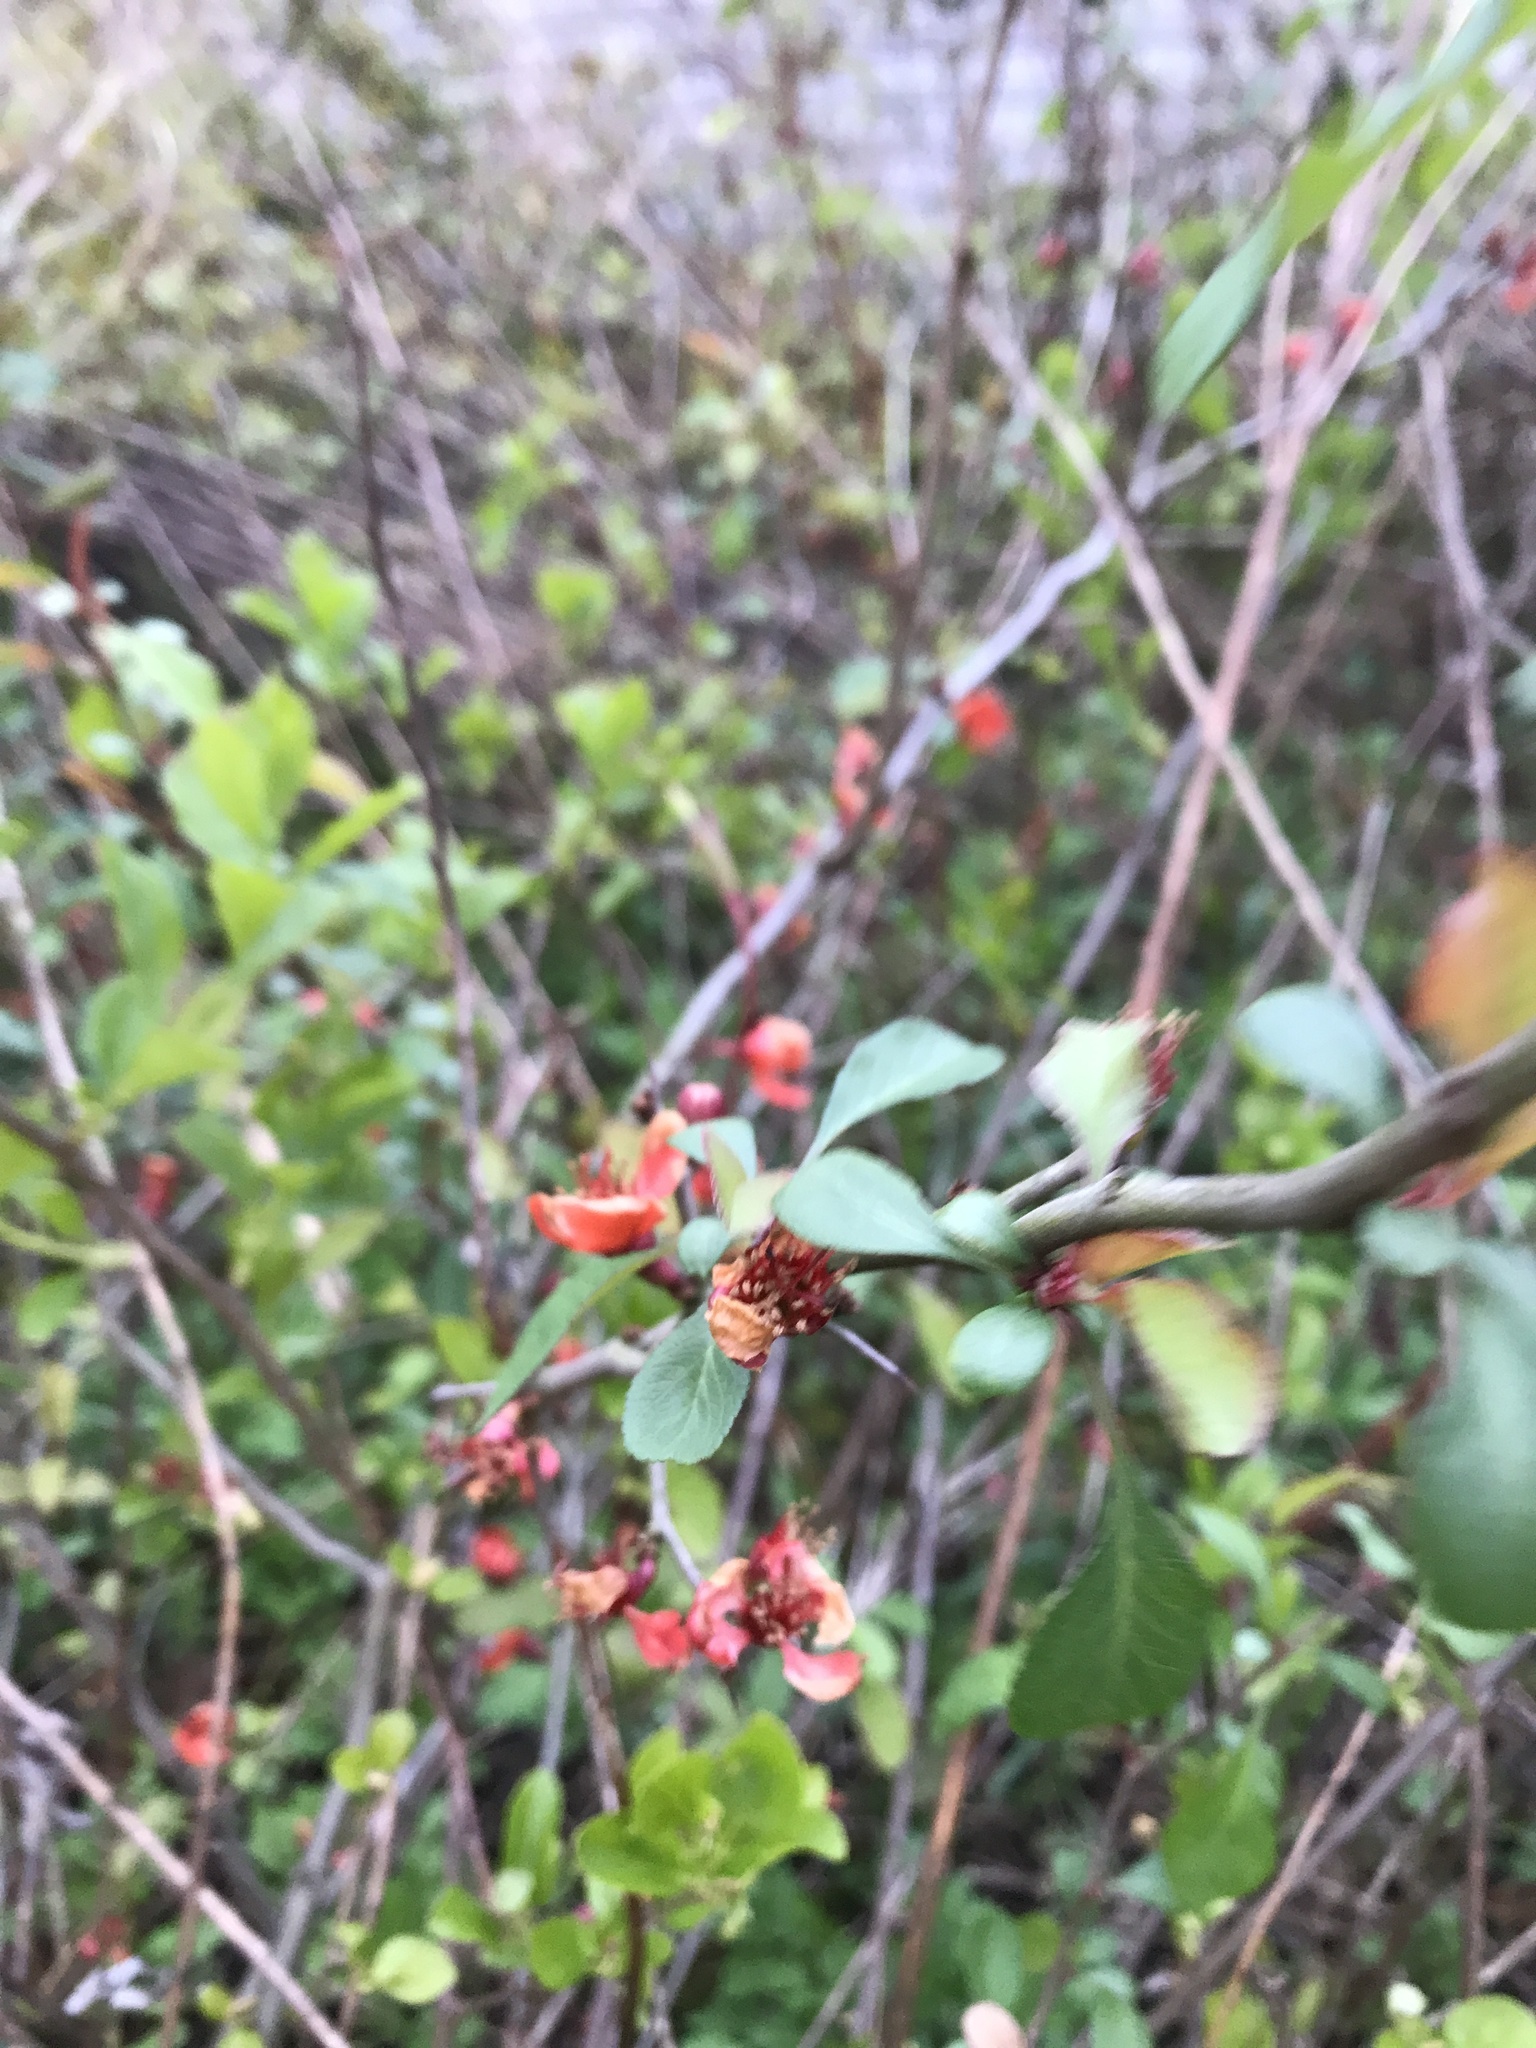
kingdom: Plantae
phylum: Tracheophyta
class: Magnoliopsida
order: Rosales
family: Rosaceae
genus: Chaenomeles
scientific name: Chaenomeles speciosa
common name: Japanese quince
